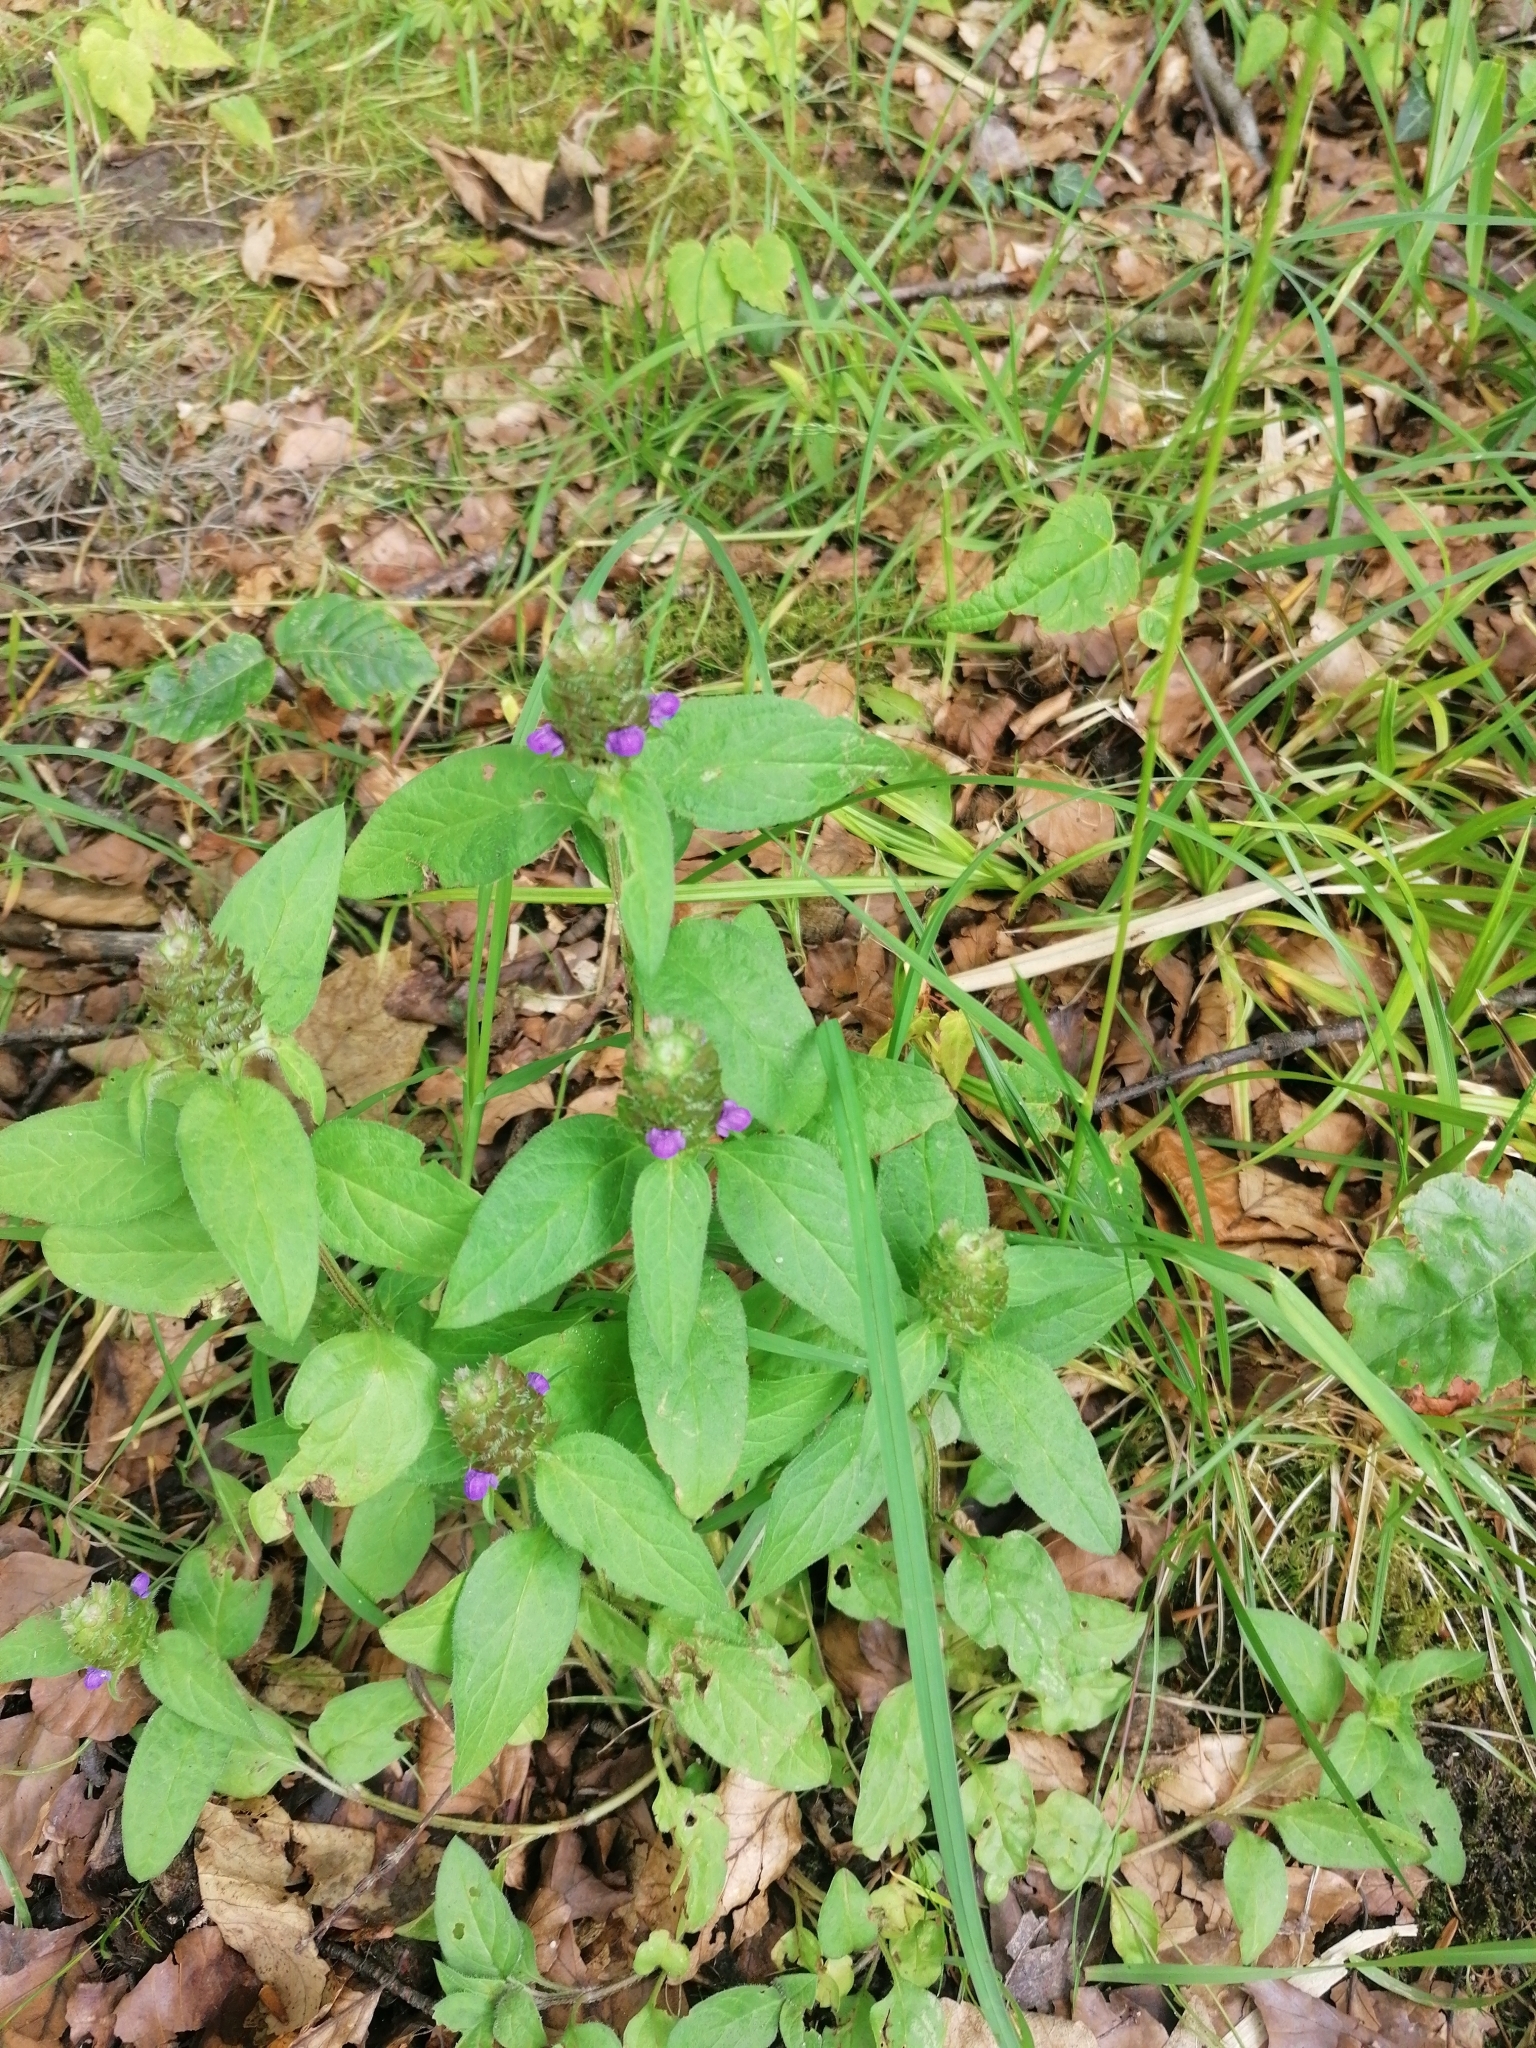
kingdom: Plantae
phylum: Tracheophyta
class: Magnoliopsida
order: Lamiales
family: Lamiaceae
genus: Prunella
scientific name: Prunella vulgaris
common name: Heal-all
